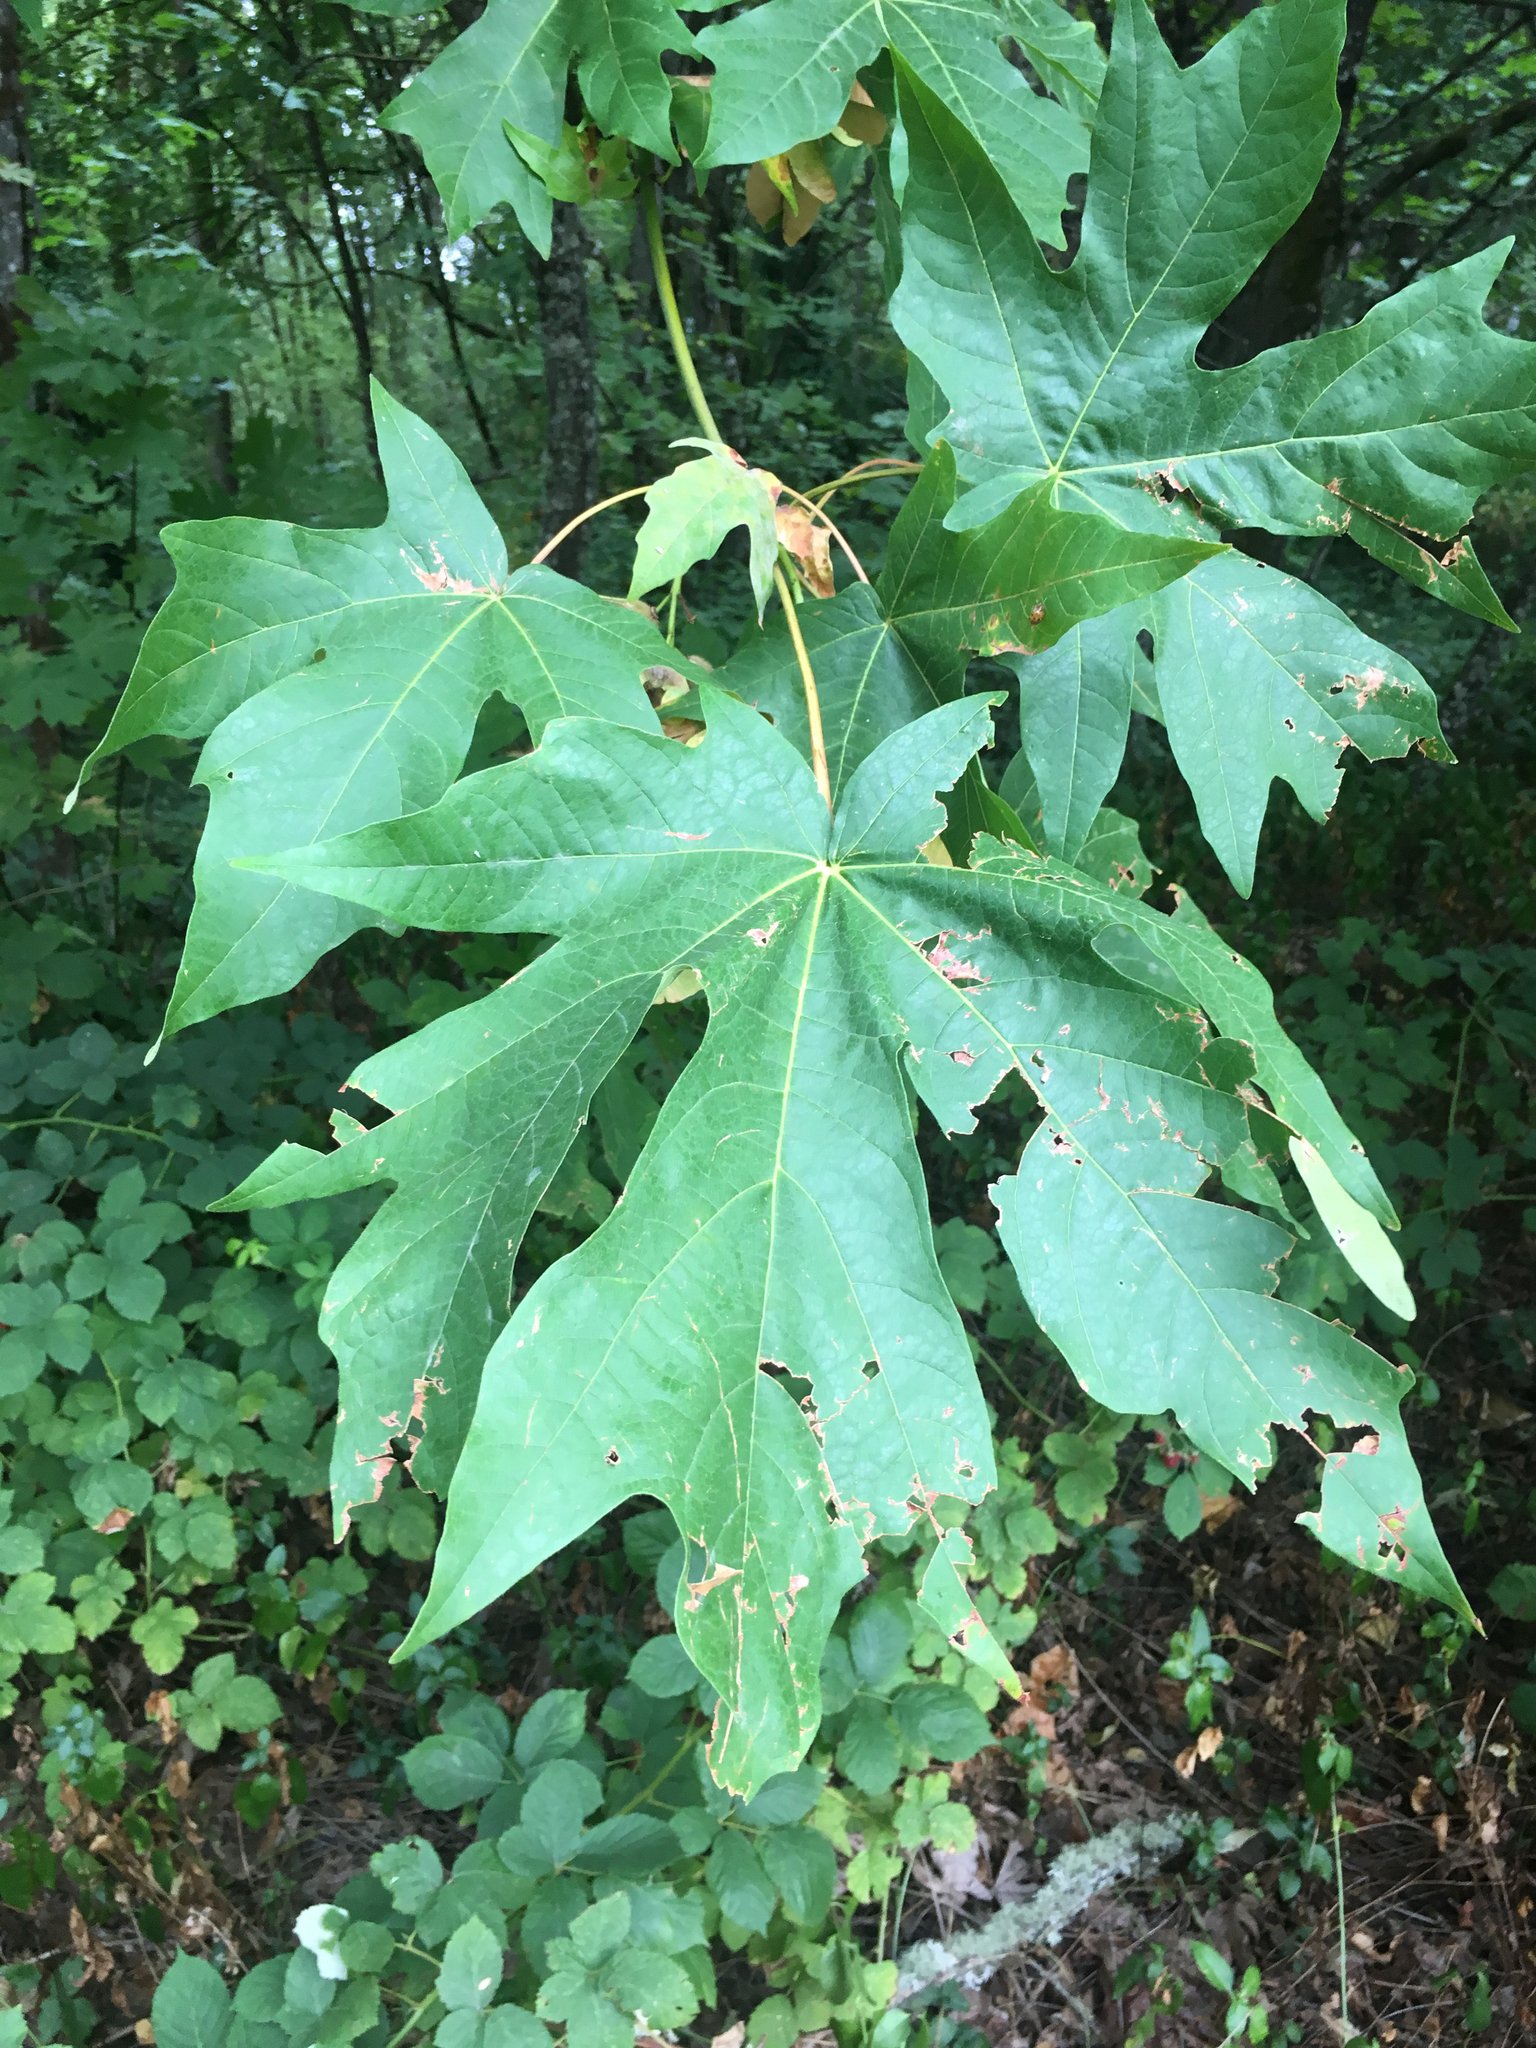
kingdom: Plantae
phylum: Tracheophyta
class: Magnoliopsida
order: Sapindales
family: Sapindaceae
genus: Acer
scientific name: Acer macrophyllum
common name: Oregon maple
